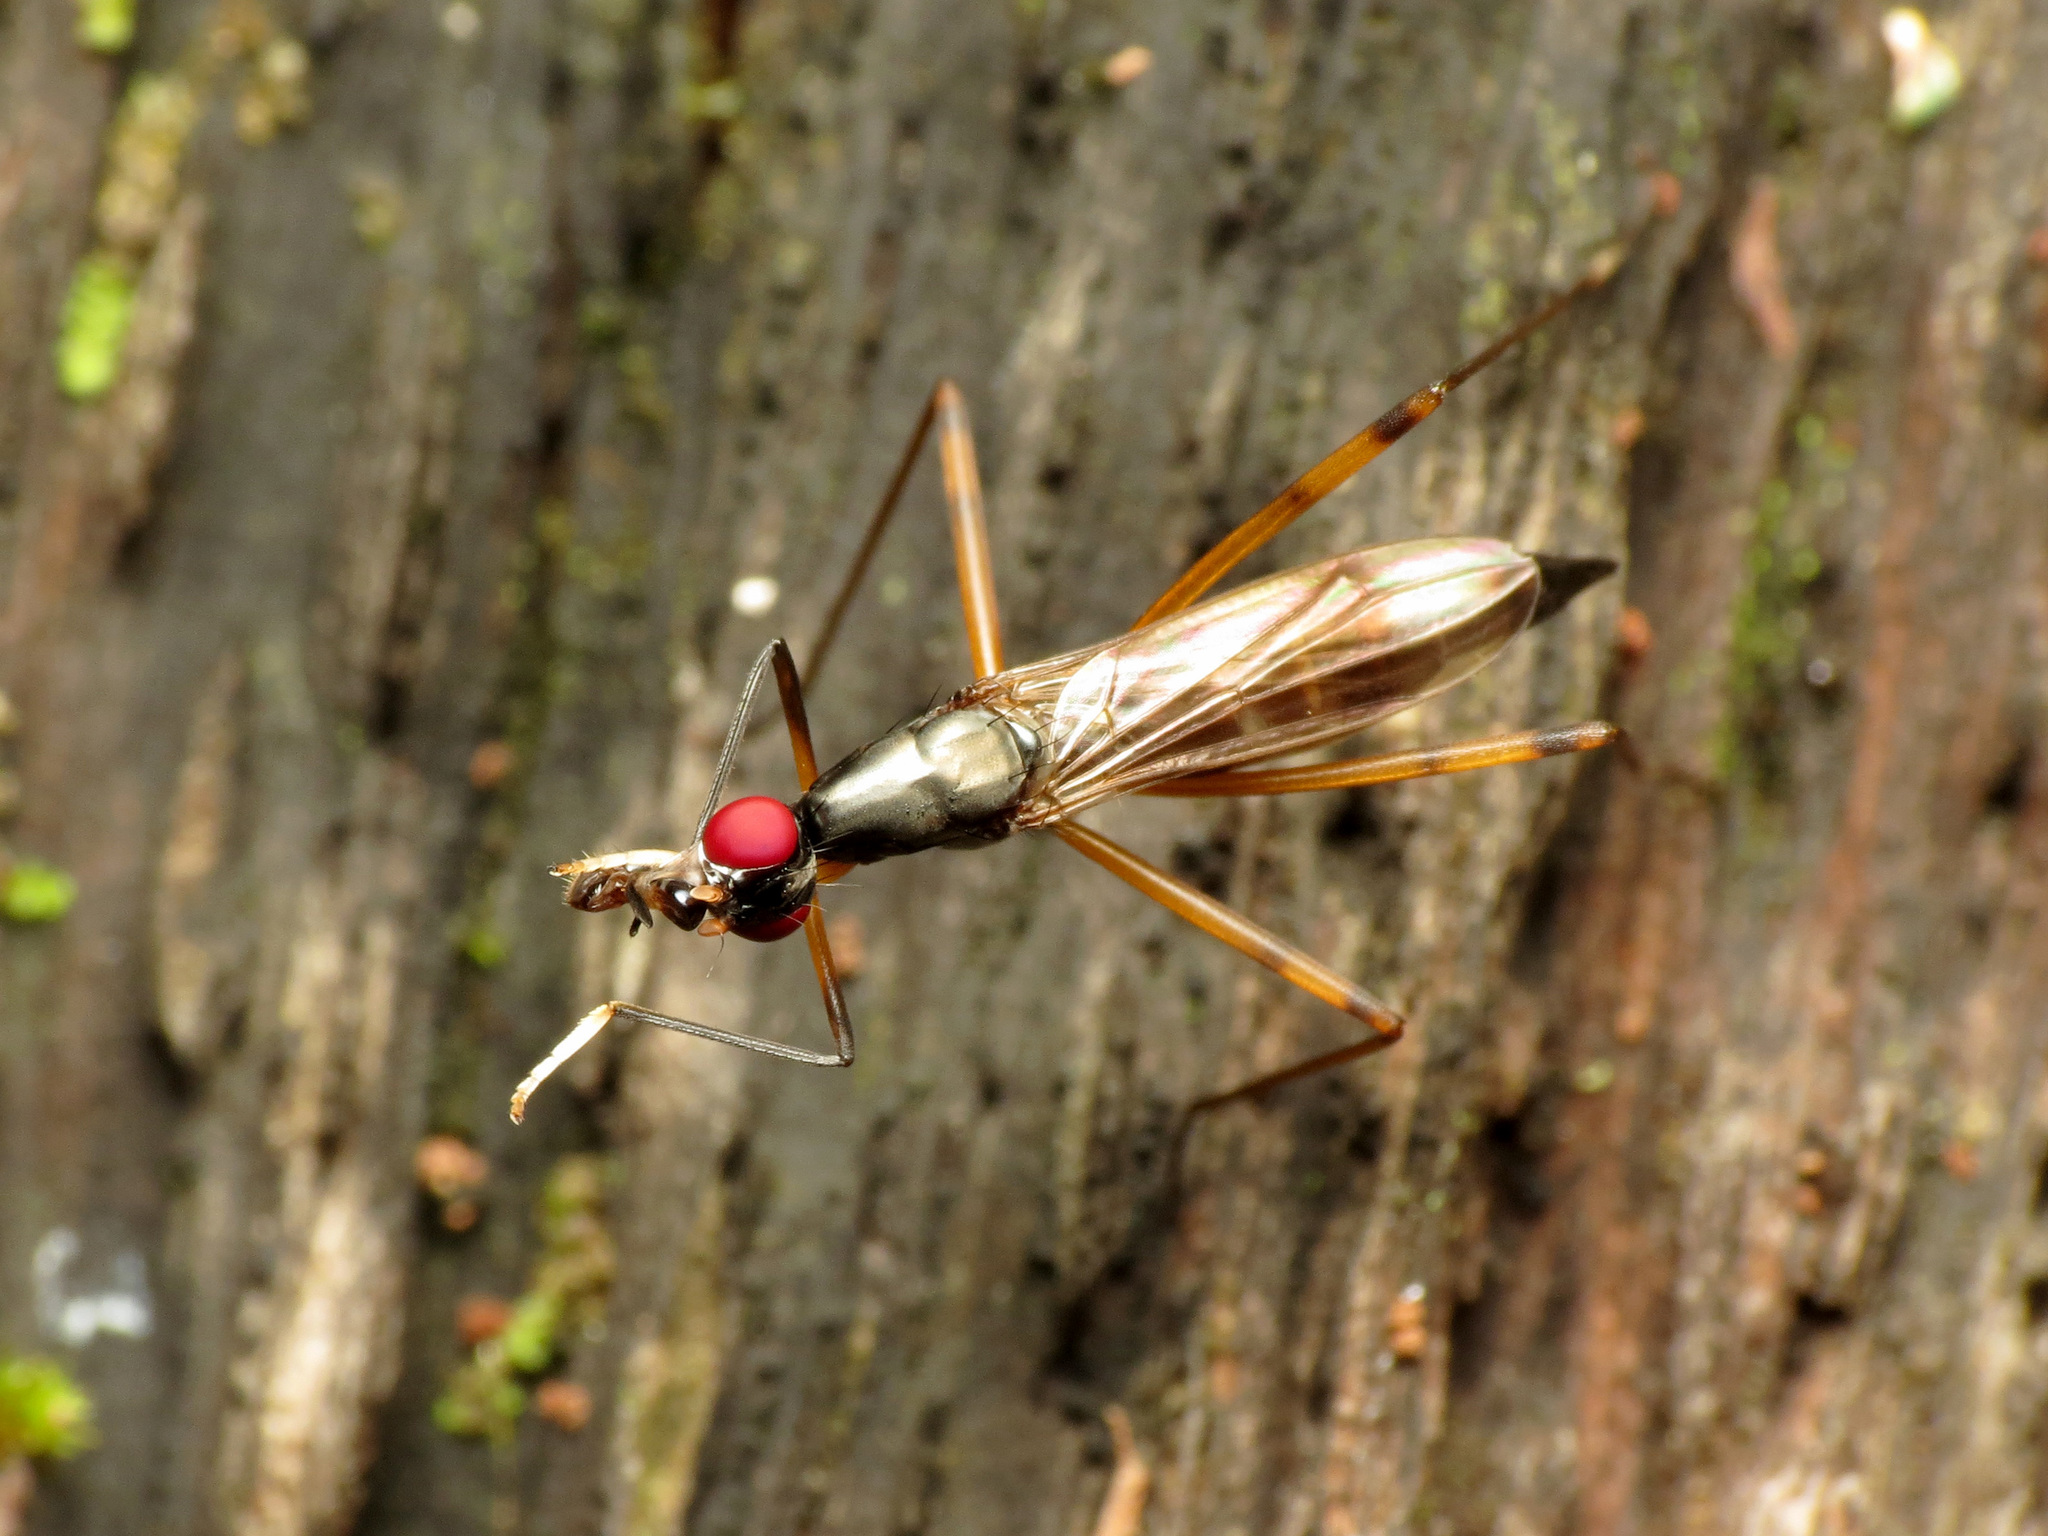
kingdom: Animalia
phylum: Arthropoda
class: Insecta
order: Diptera
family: Micropezidae
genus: Rainieria
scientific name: Rainieria antennaepes
